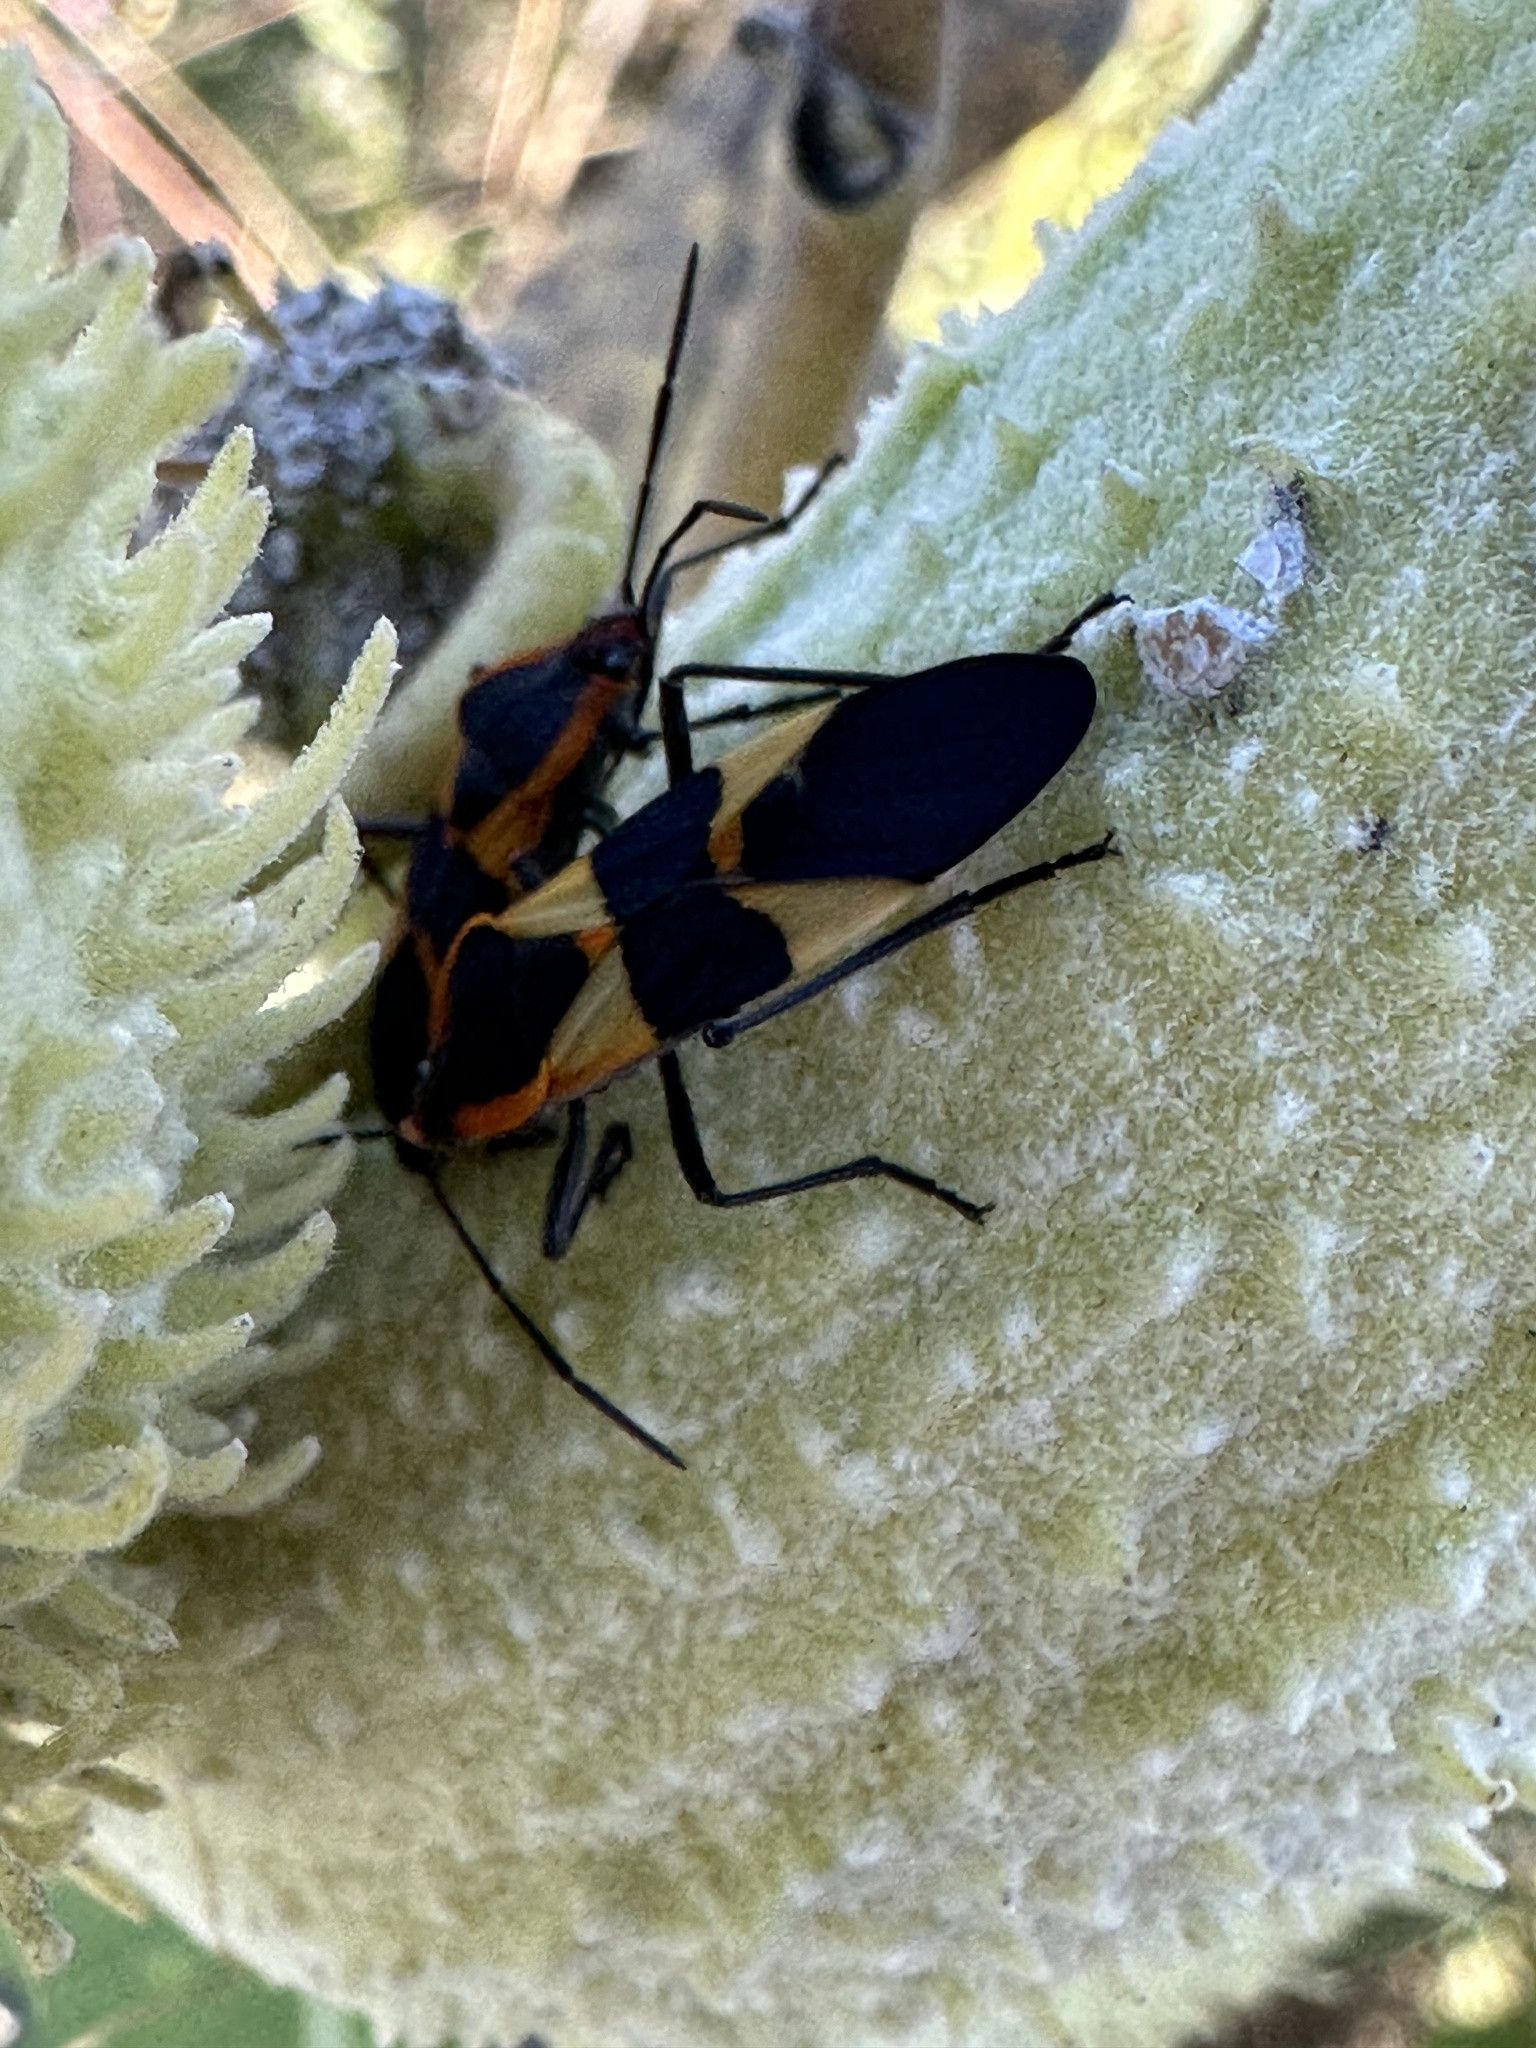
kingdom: Animalia
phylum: Arthropoda
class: Insecta
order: Hemiptera
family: Lygaeidae
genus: Oncopeltus
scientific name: Oncopeltus fasciatus
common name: Large milkweed bug
